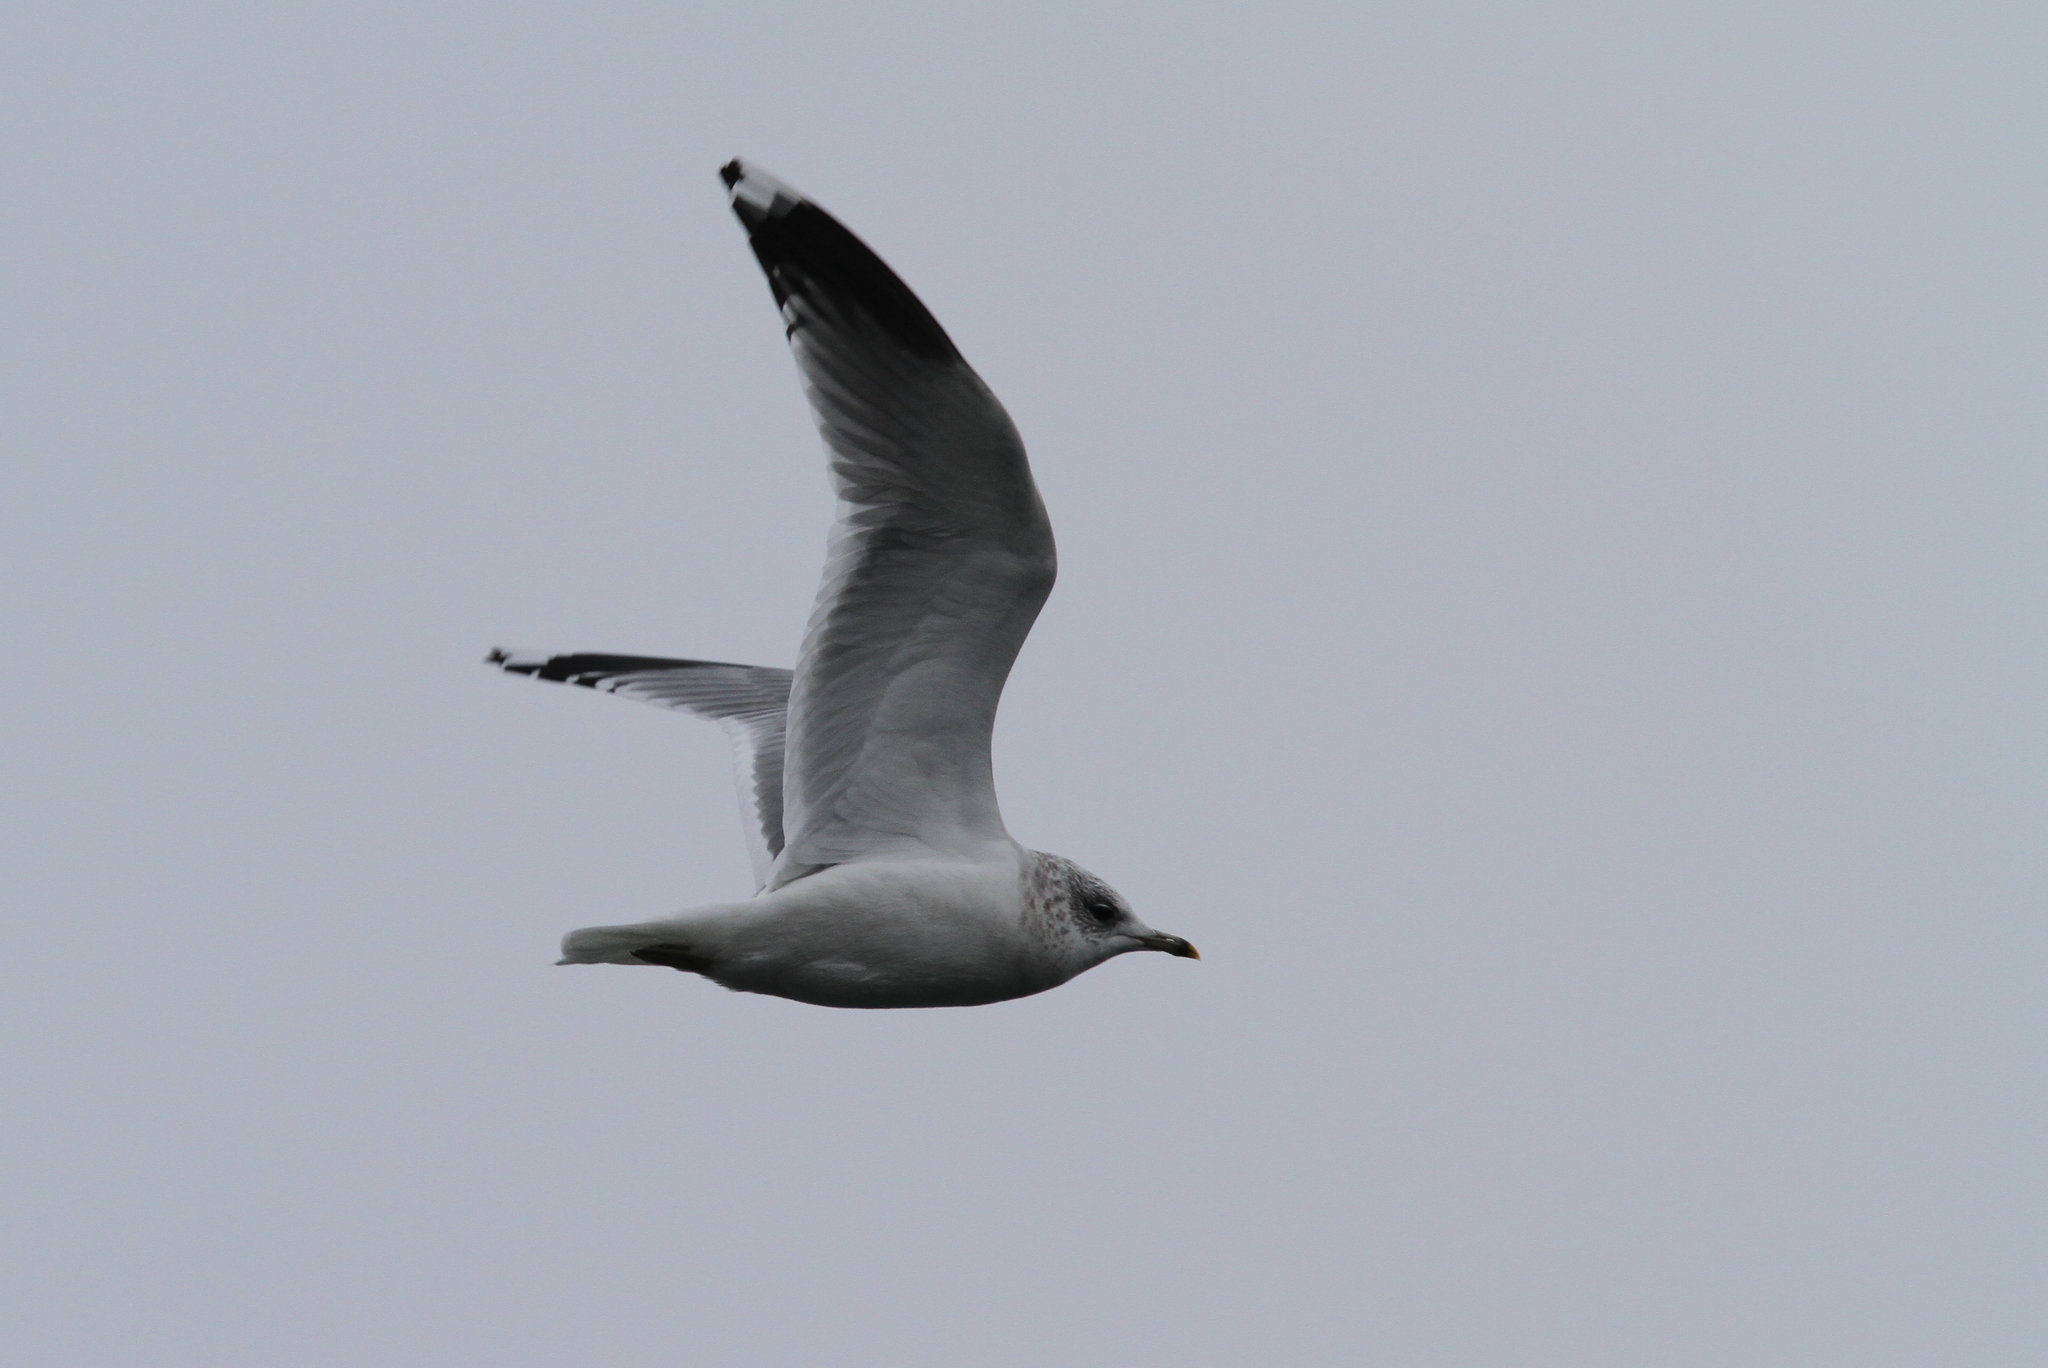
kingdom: Animalia
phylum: Chordata
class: Aves
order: Charadriiformes
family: Laridae
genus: Larus
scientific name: Larus canus
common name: Mew gull
